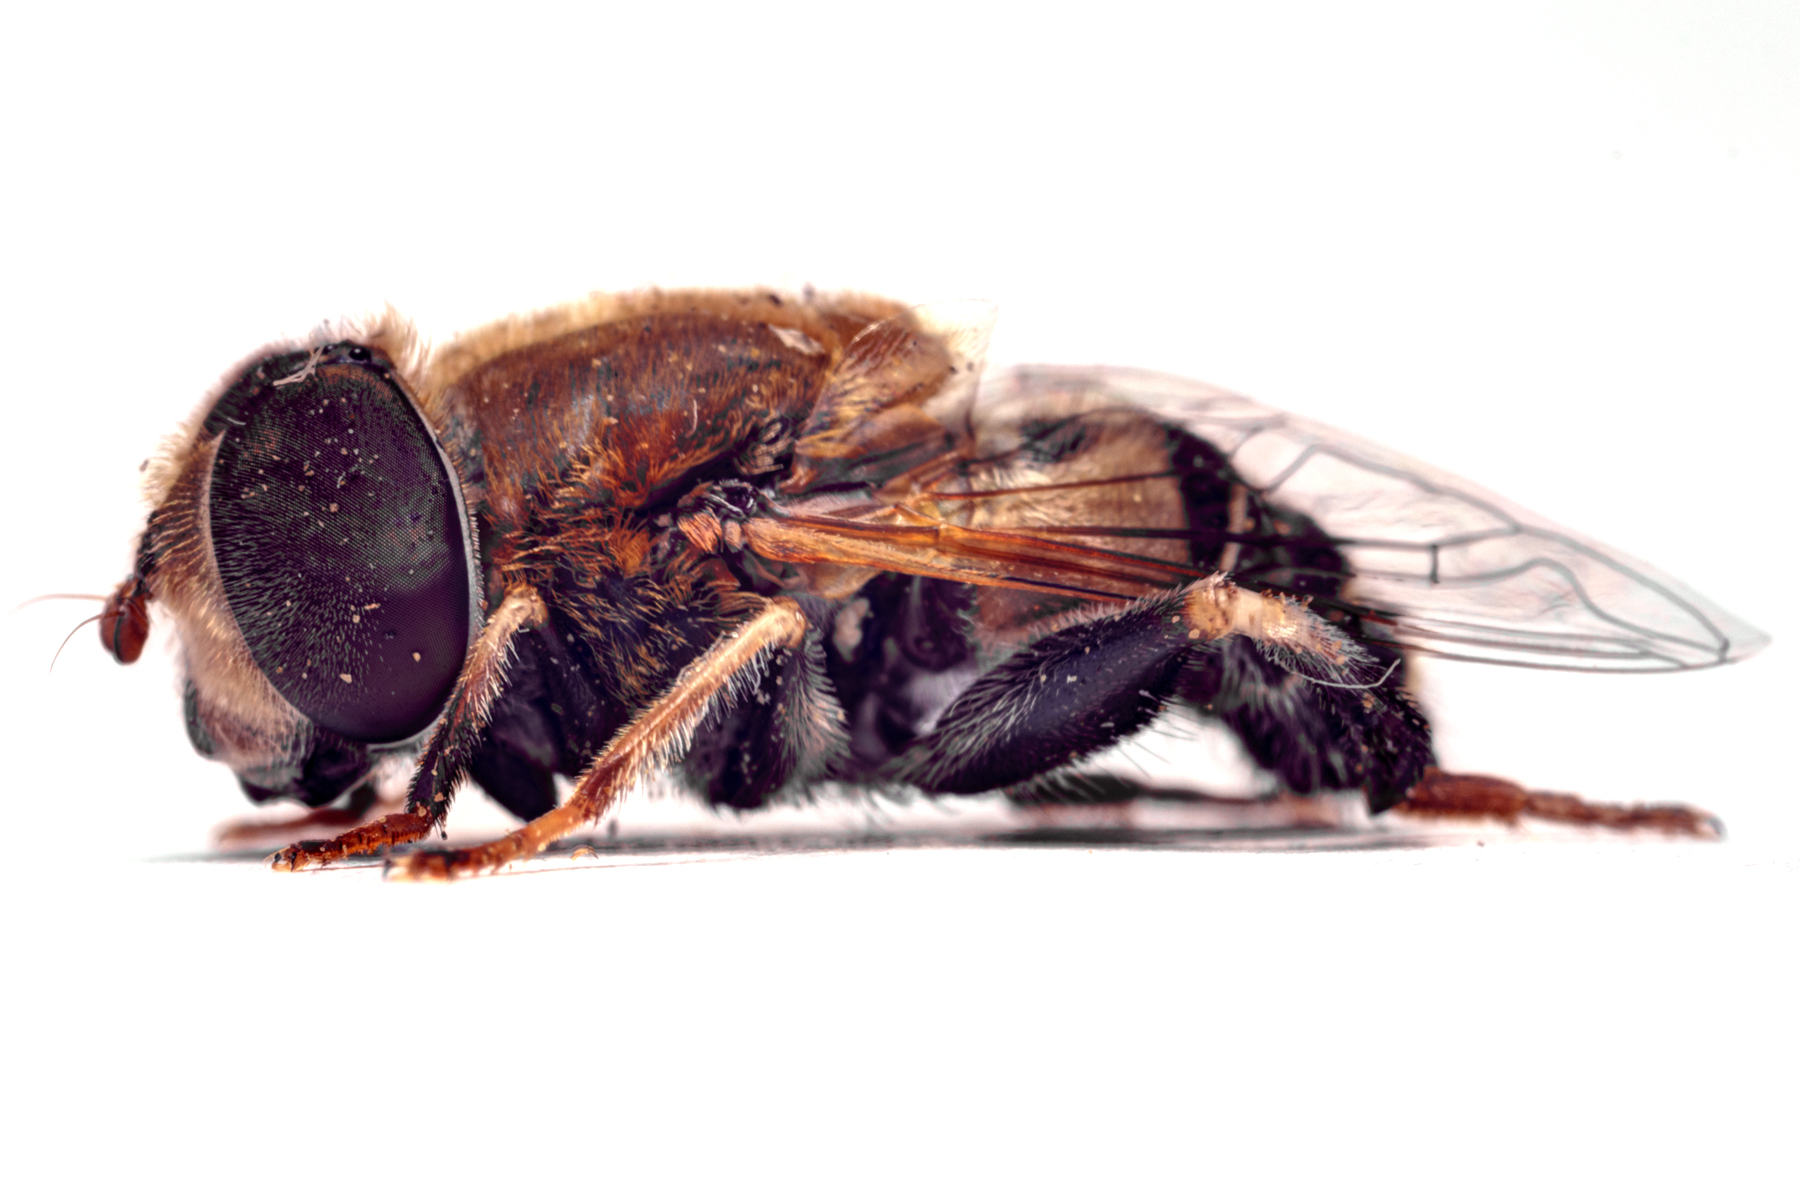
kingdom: Animalia
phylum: Arthropoda
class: Insecta
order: Diptera
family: Syrphidae
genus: Palpada
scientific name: Palpada mexicana
